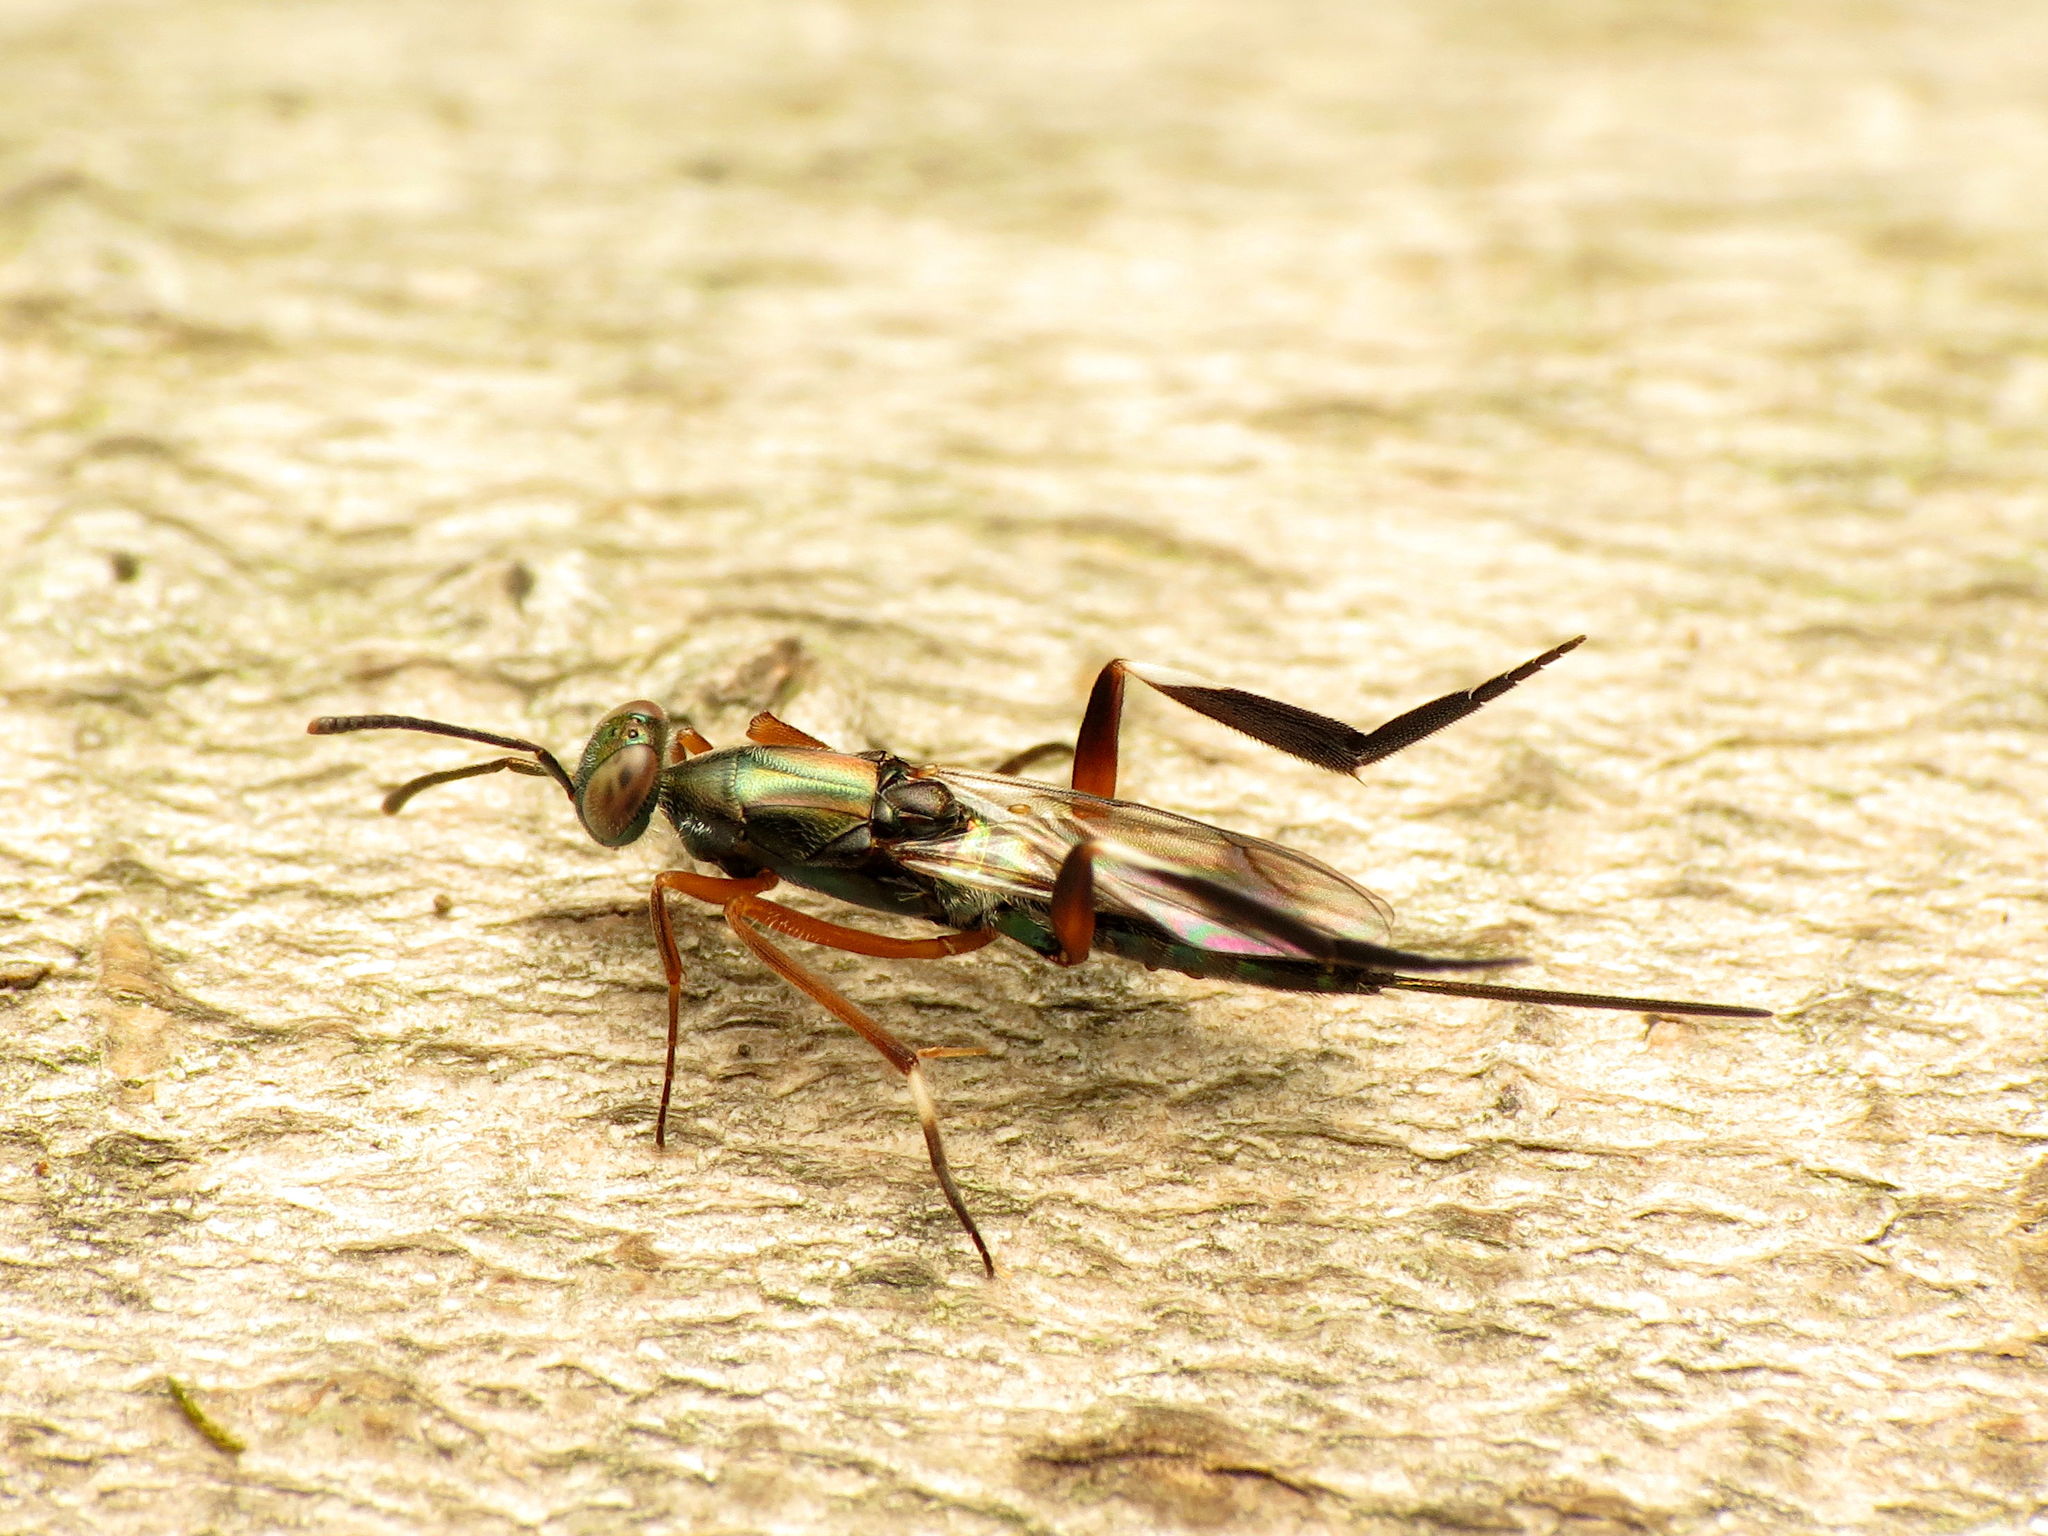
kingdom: Animalia
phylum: Arthropoda
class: Insecta
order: Hymenoptera
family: Eupelmidae
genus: Metapelma
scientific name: Metapelma spectabile
